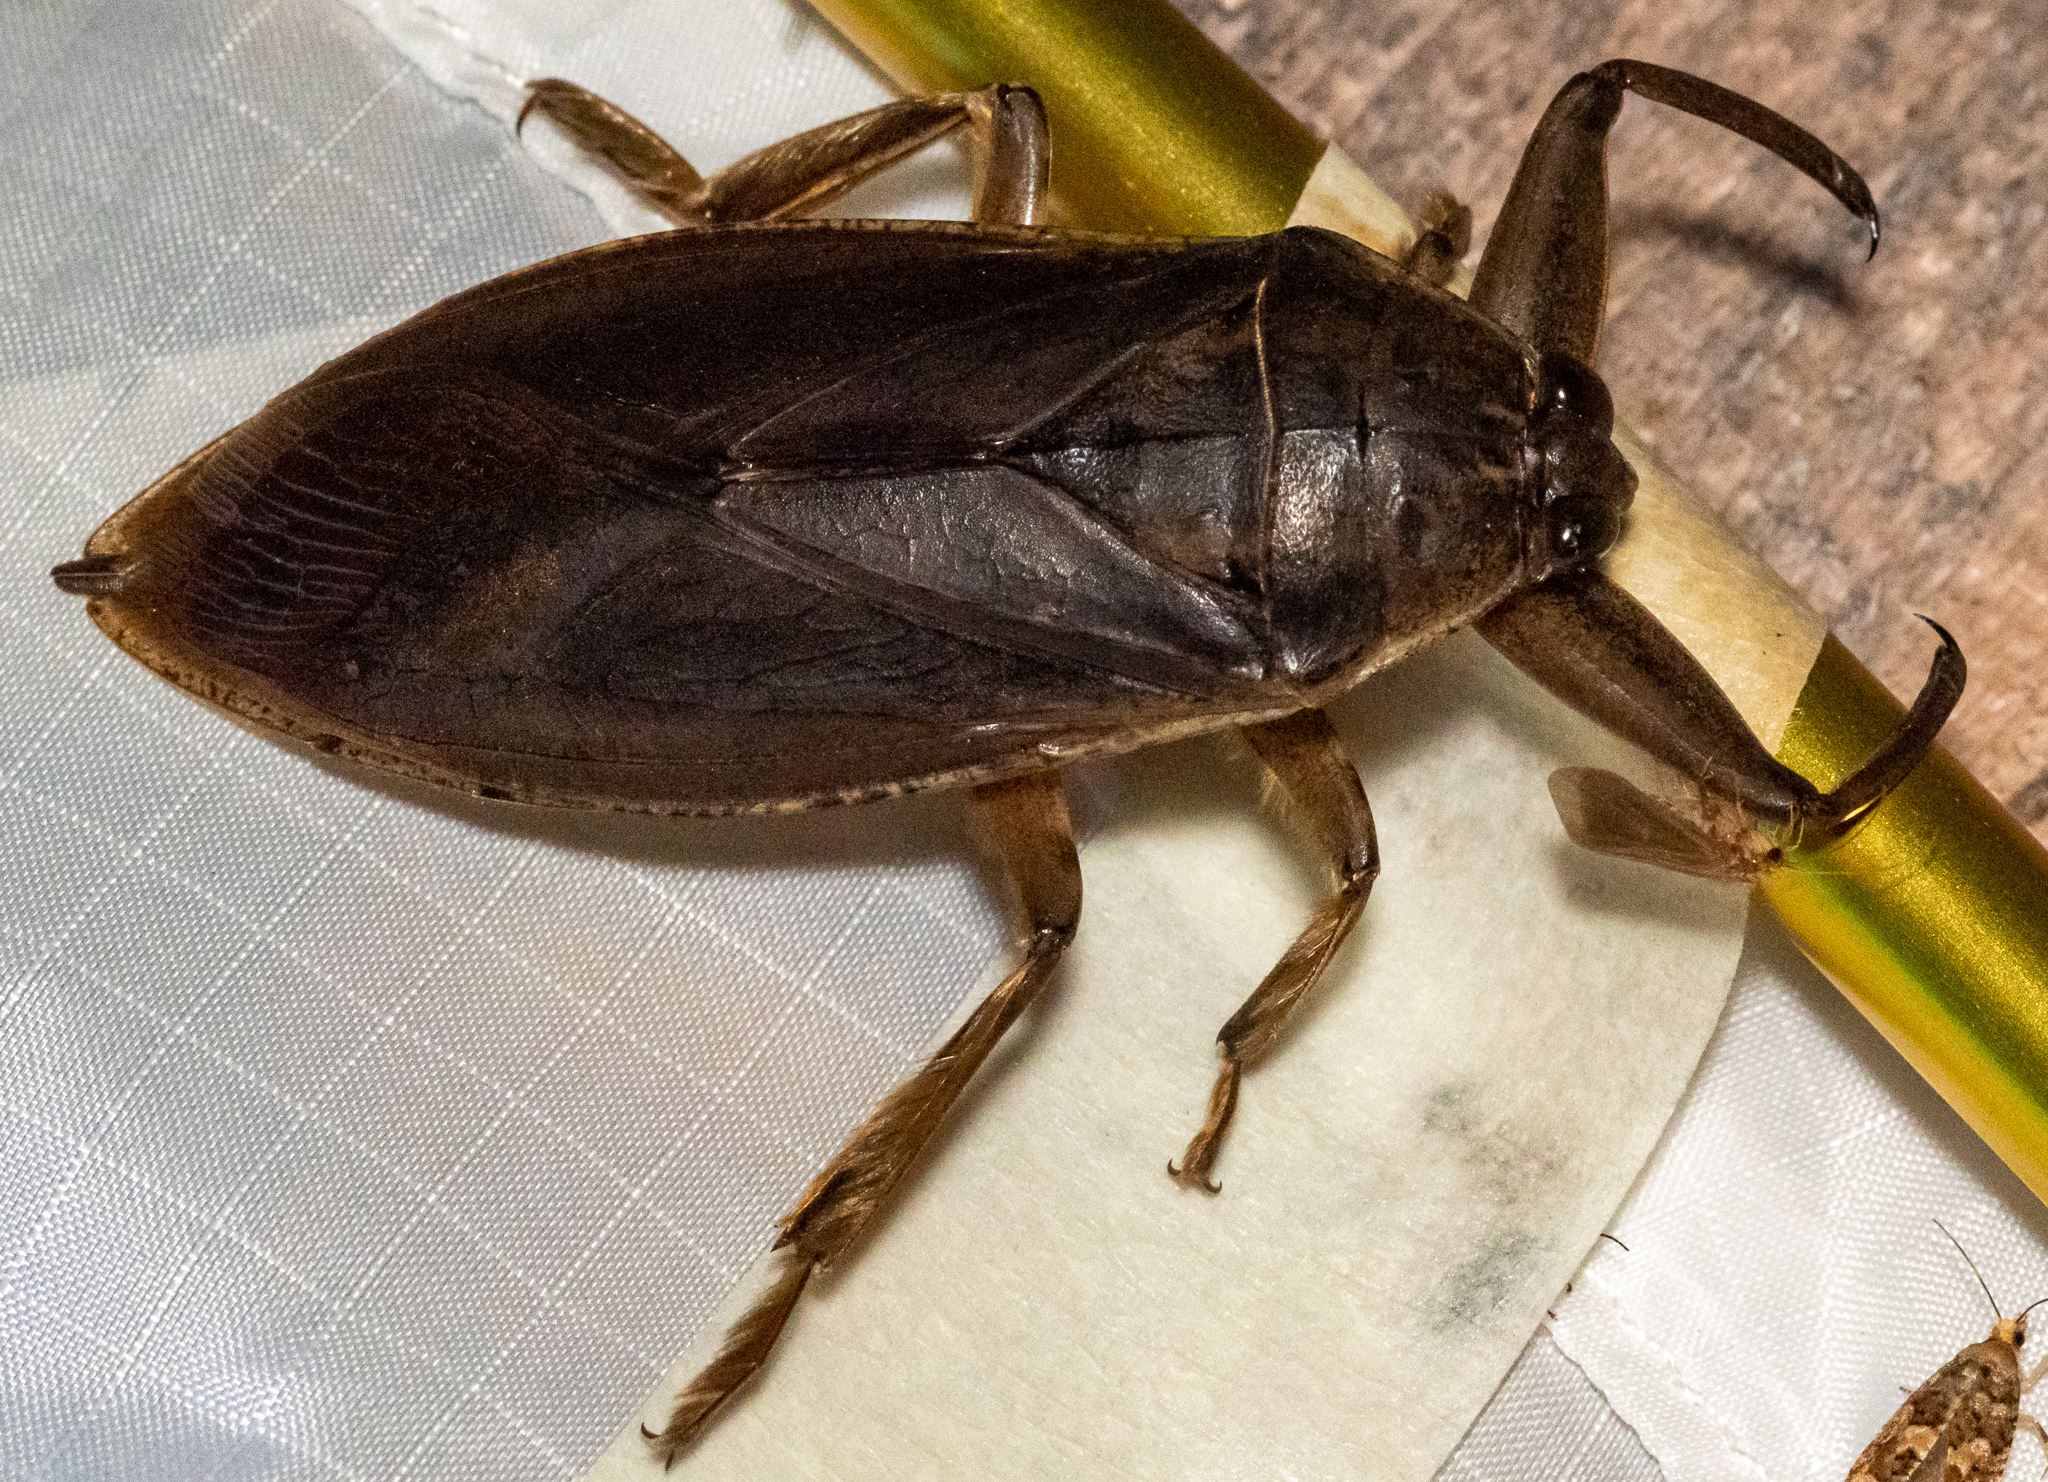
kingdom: Animalia
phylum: Arthropoda
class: Insecta
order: Hemiptera
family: Belostomatidae
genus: Lethocerus
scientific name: Lethocerus americanus
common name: Giant water bug
